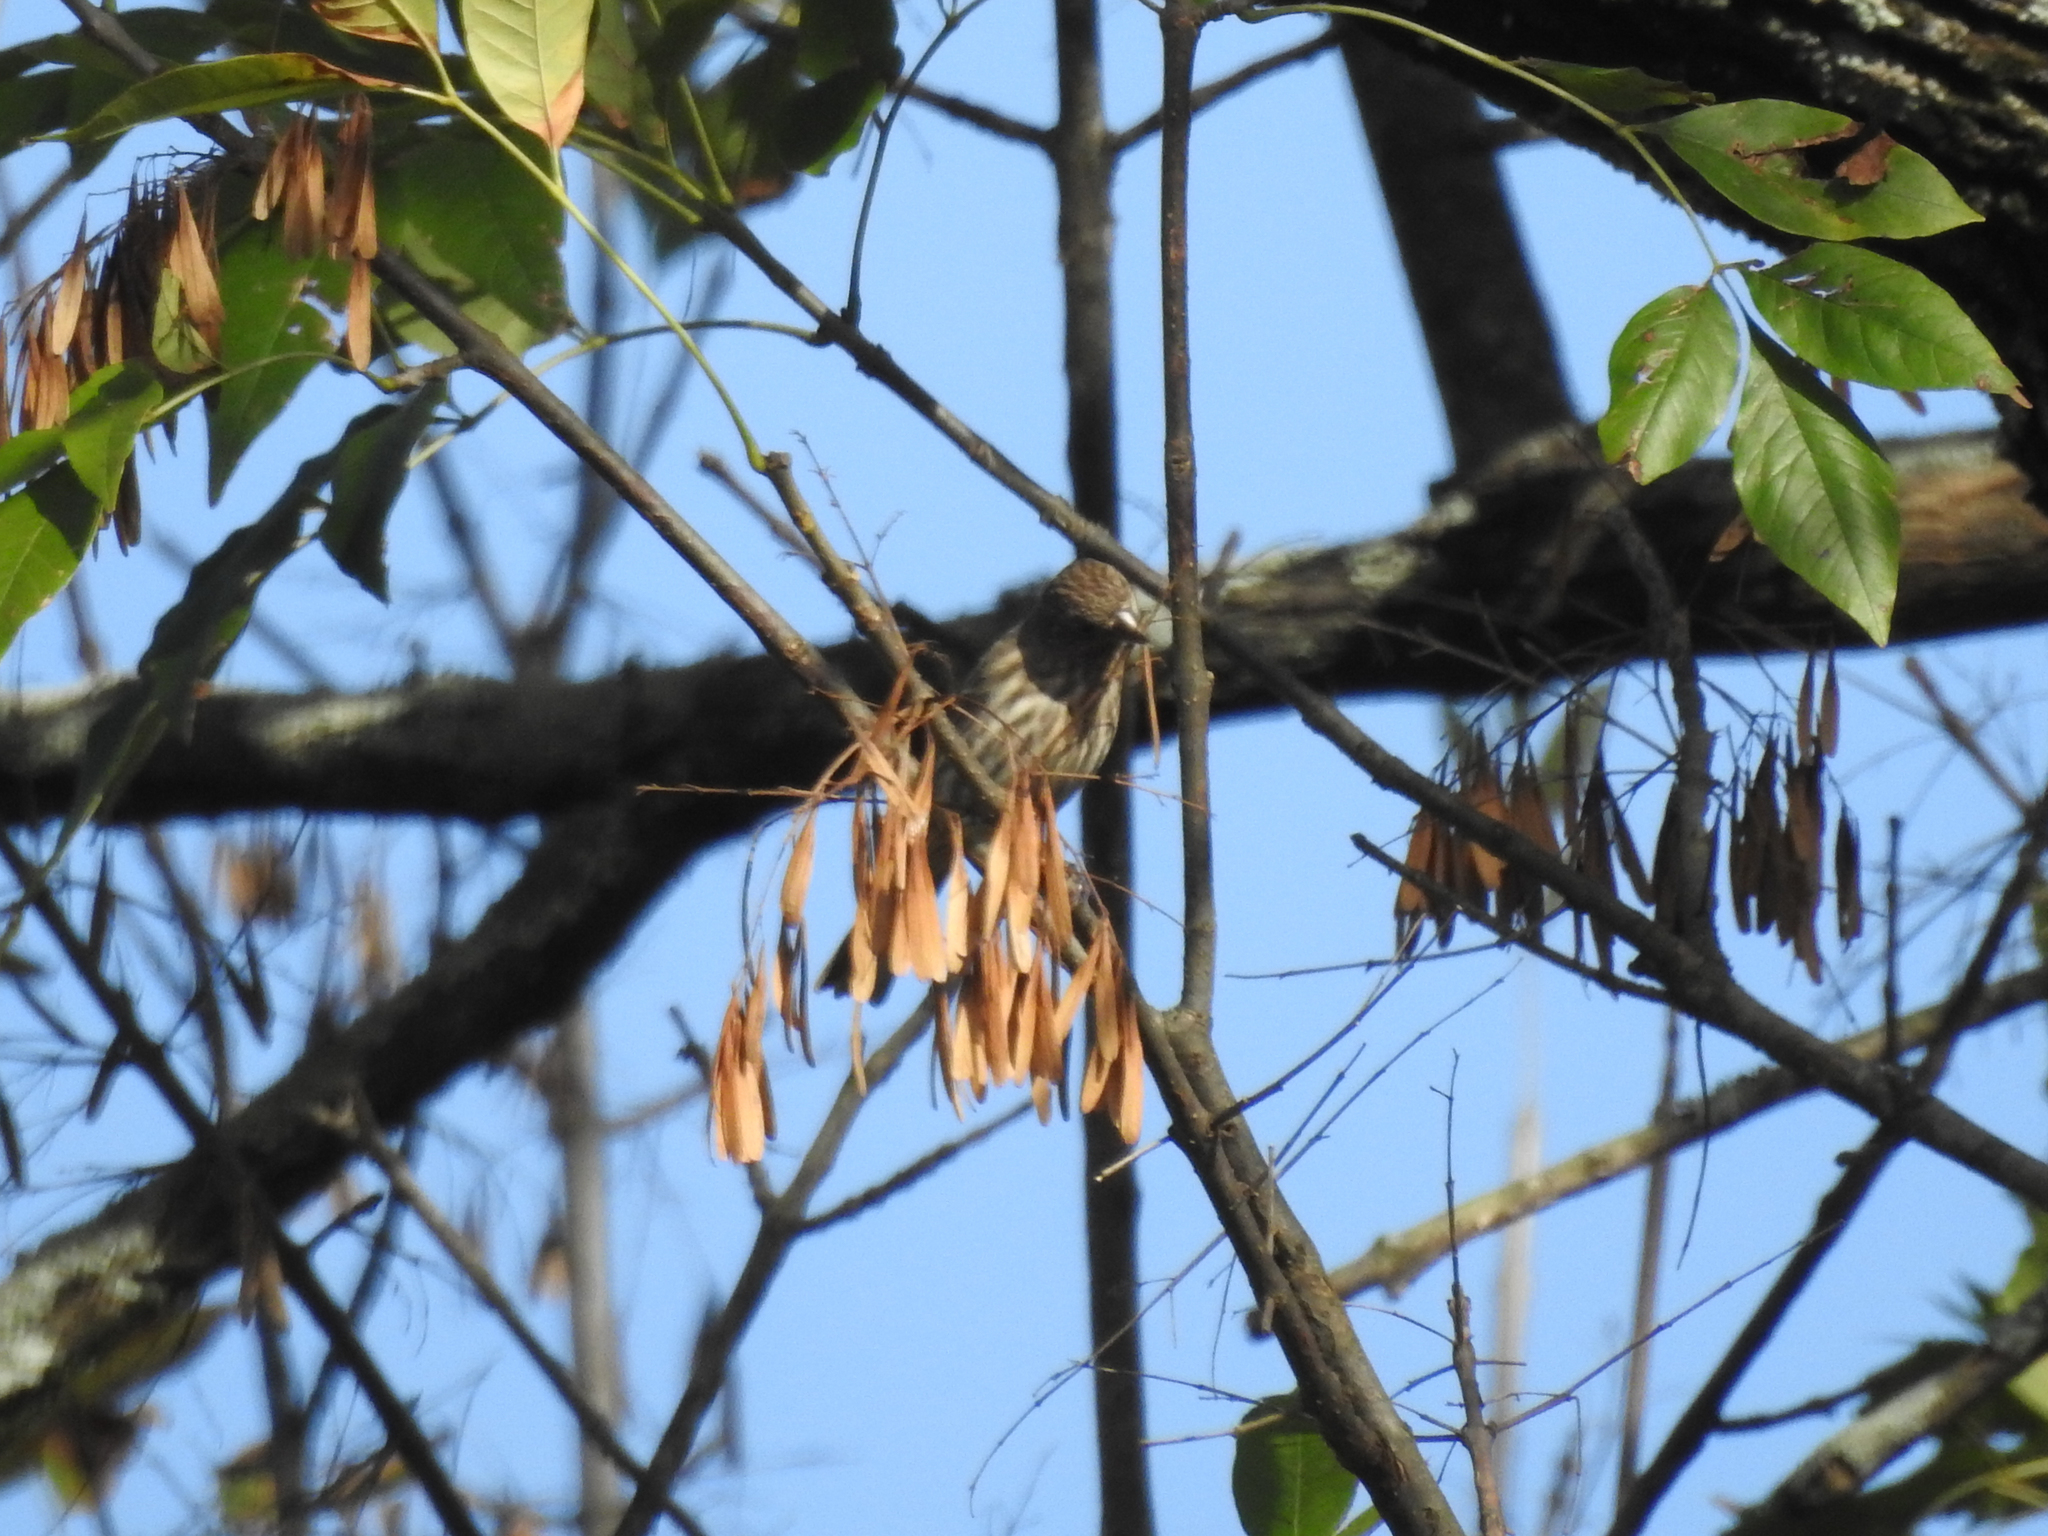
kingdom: Animalia
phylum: Chordata
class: Aves
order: Passeriformes
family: Fringillidae
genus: Haemorhous
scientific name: Haemorhous mexicanus
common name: House finch
